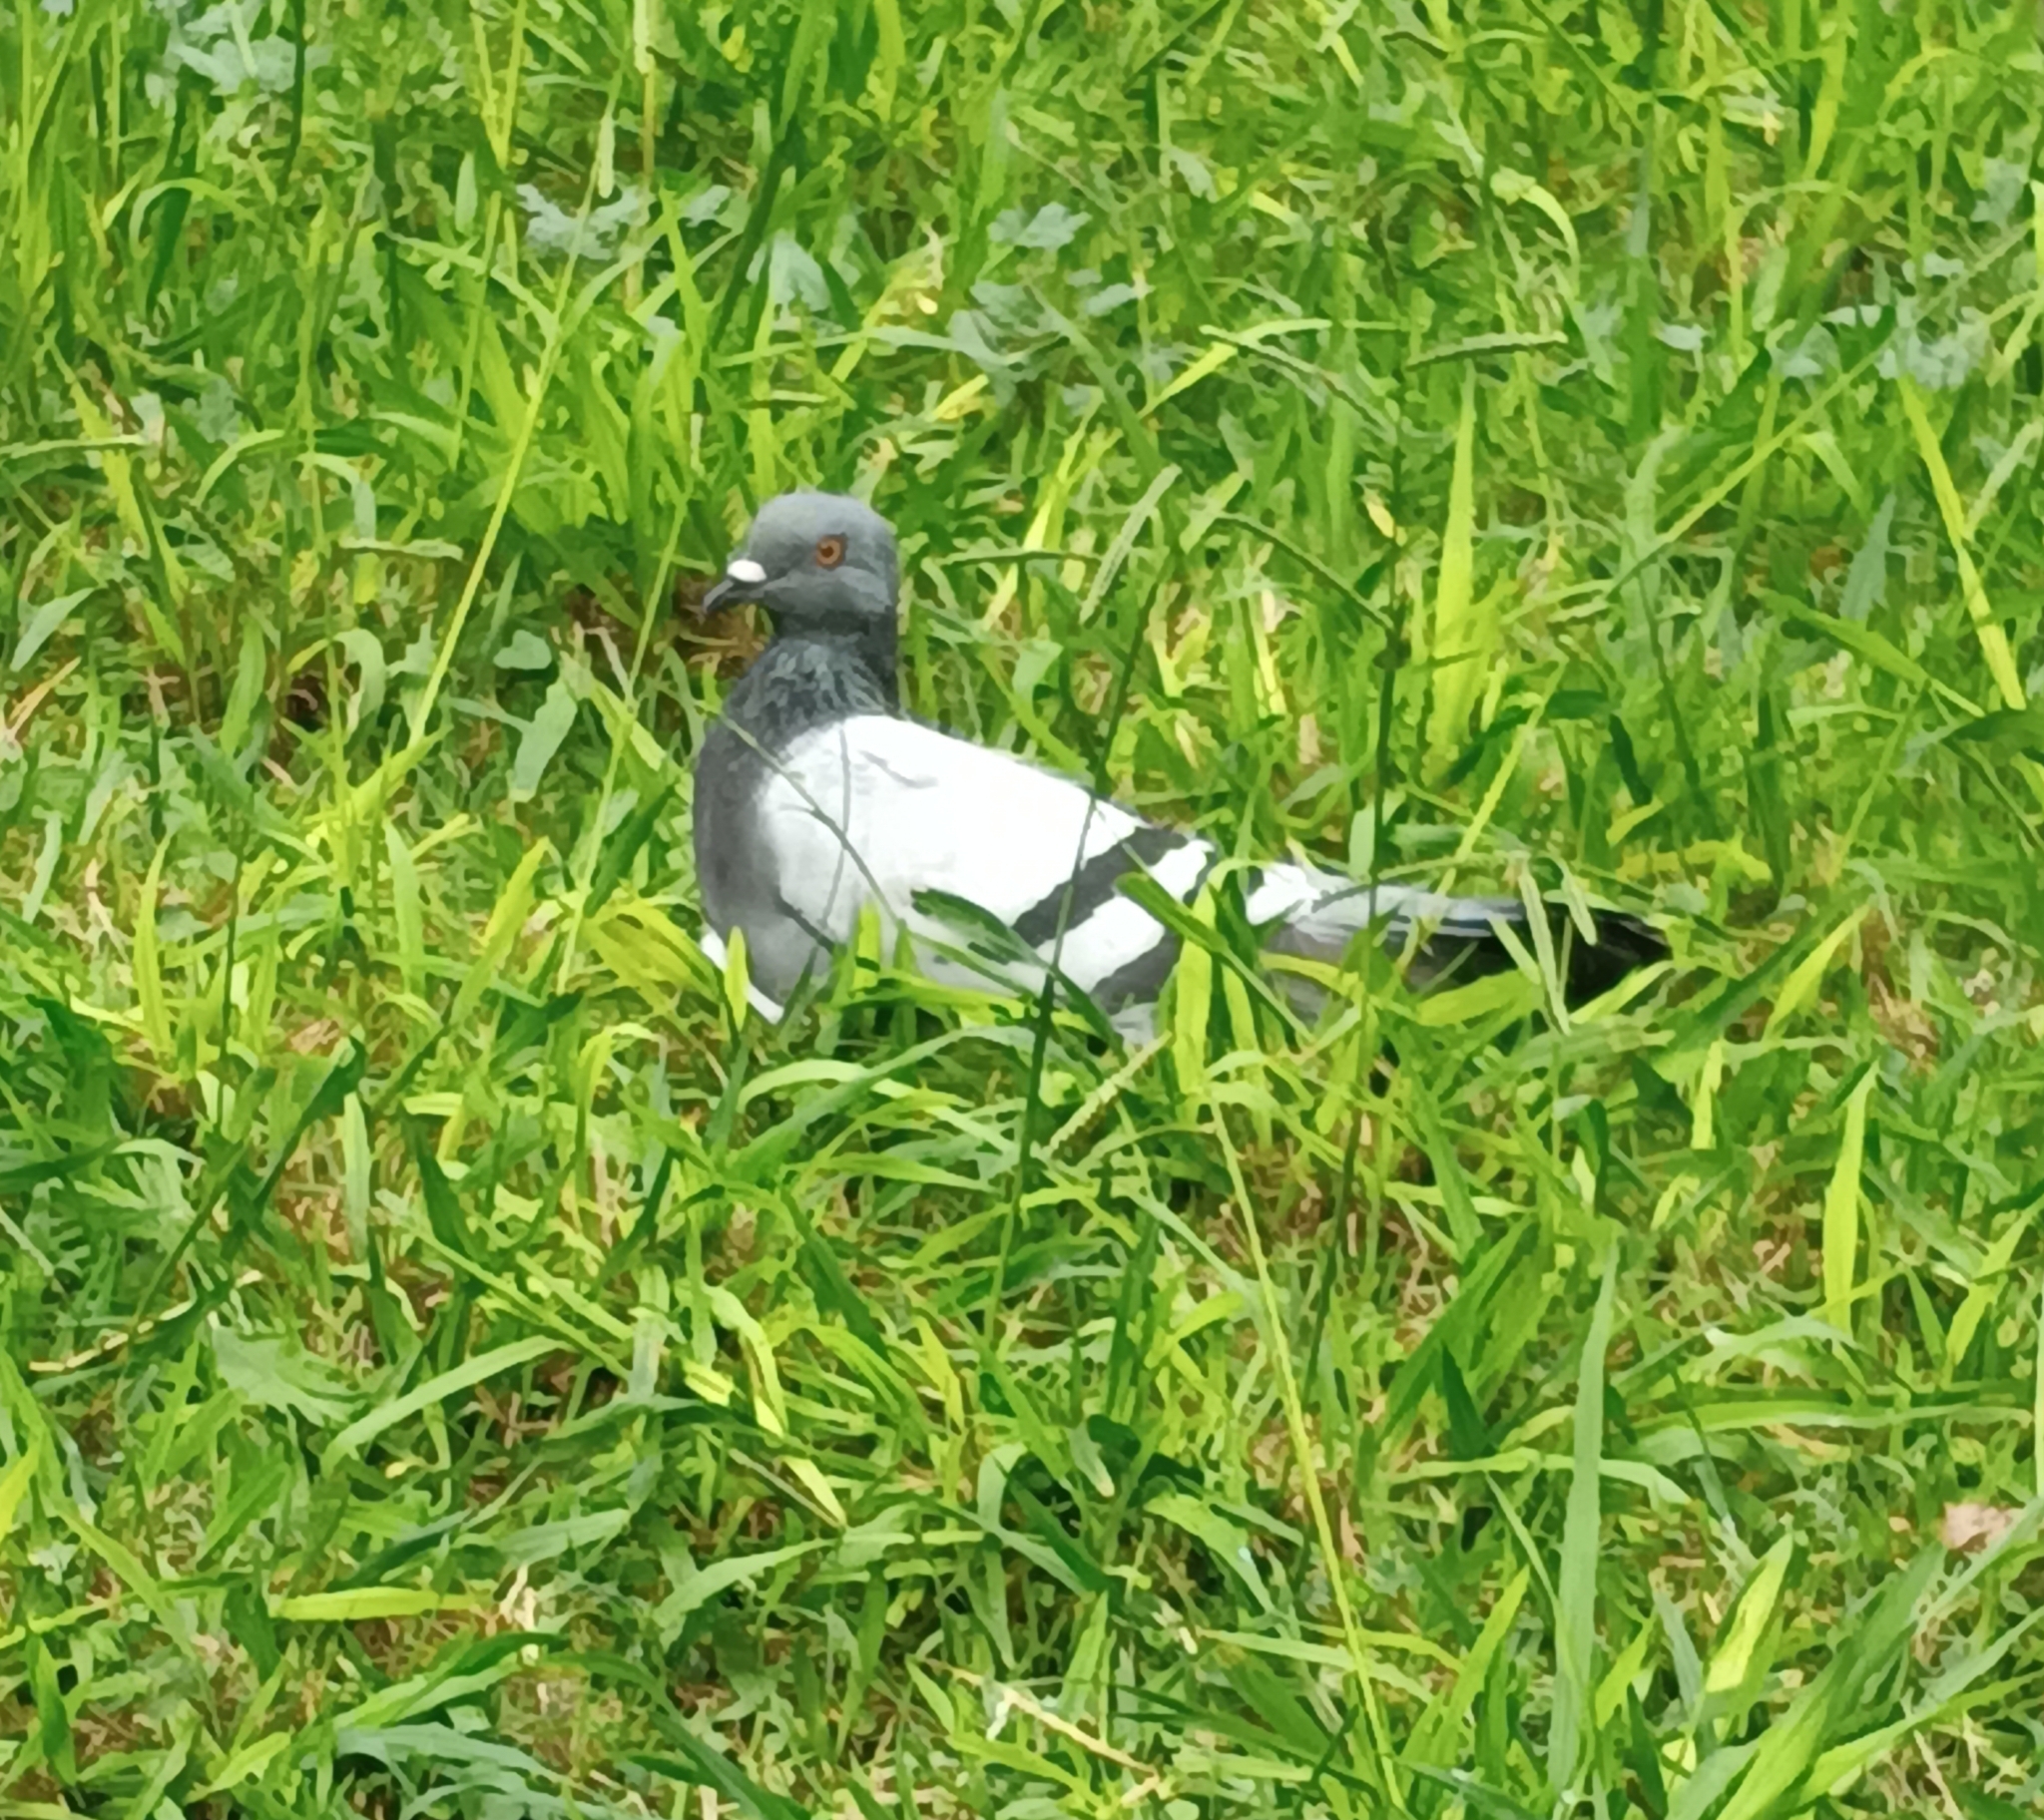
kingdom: Animalia
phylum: Chordata
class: Aves
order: Columbiformes
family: Columbidae
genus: Columba
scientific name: Columba livia
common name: Rock pigeon
